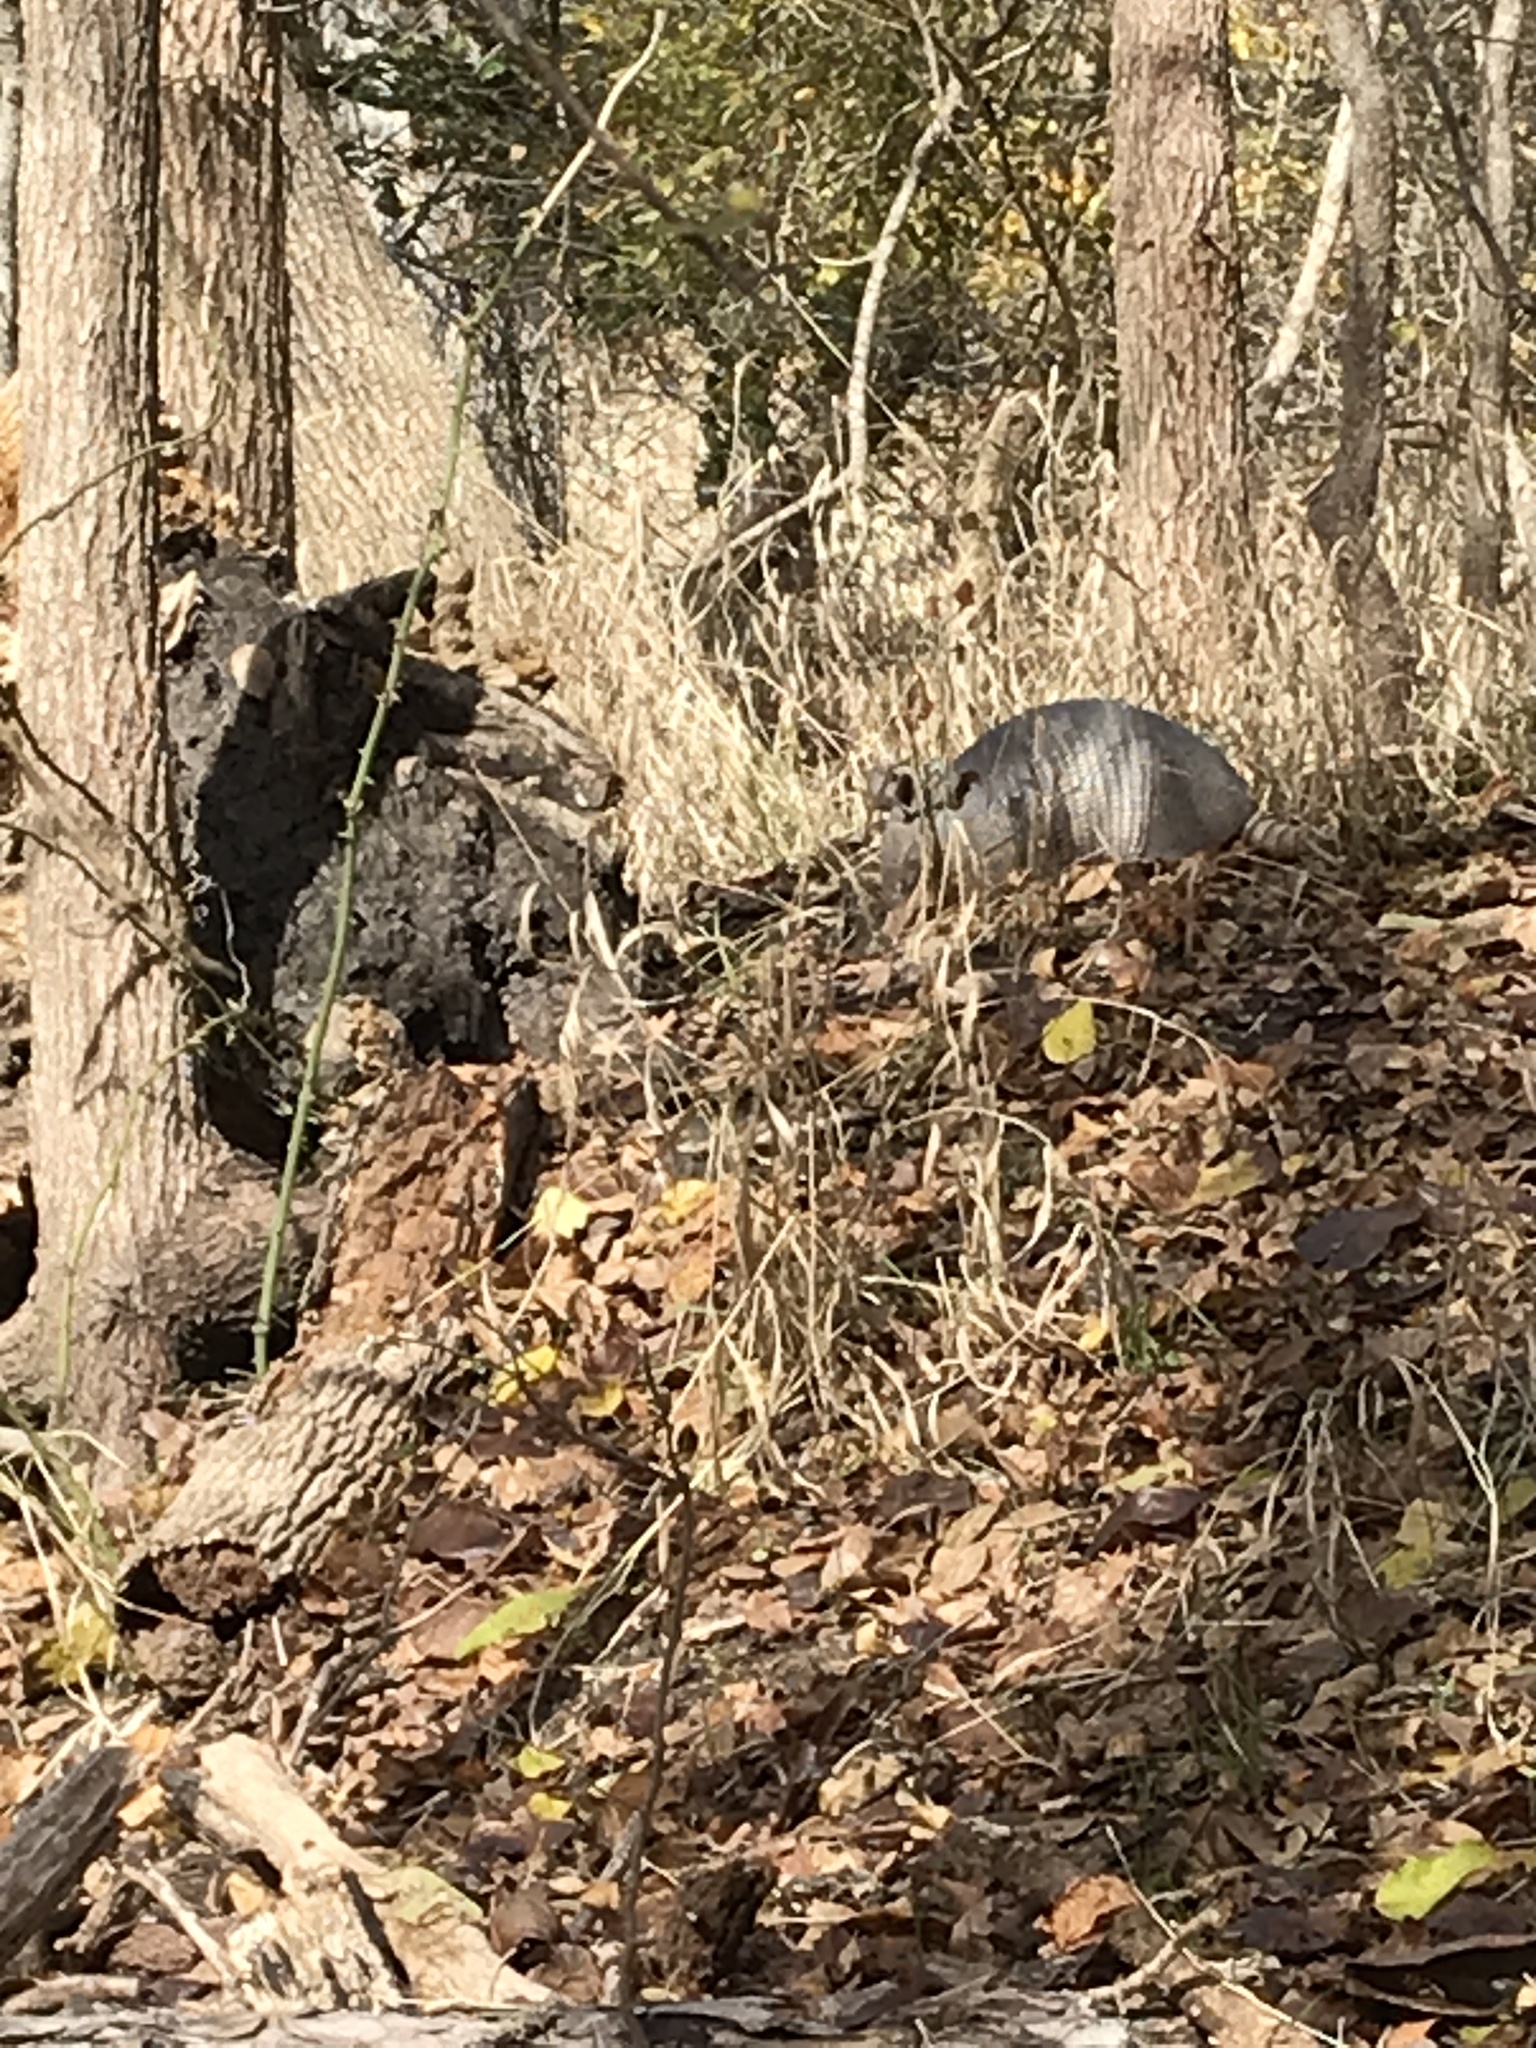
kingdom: Animalia
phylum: Chordata
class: Mammalia
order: Cingulata
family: Dasypodidae
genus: Dasypus
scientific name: Dasypus novemcinctus
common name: Nine-banded armadillo
